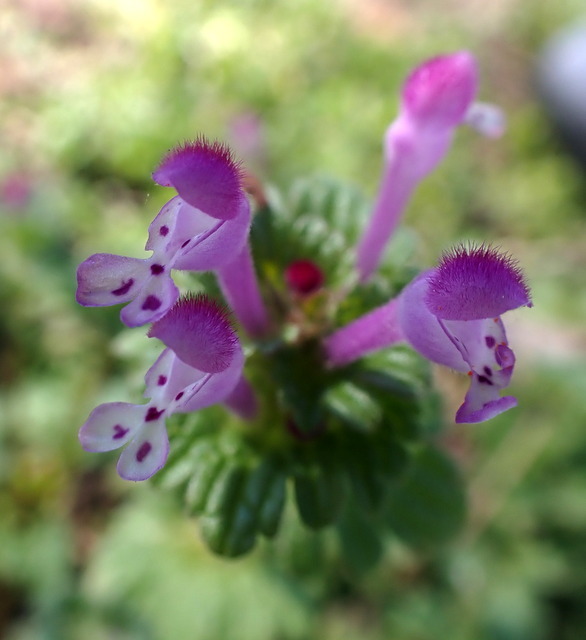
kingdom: Plantae
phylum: Tracheophyta
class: Magnoliopsida
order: Lamiales
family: Lamiaceae
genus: Lamium
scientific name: Lamium amplexicaule
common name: Henbit dead-nettle
